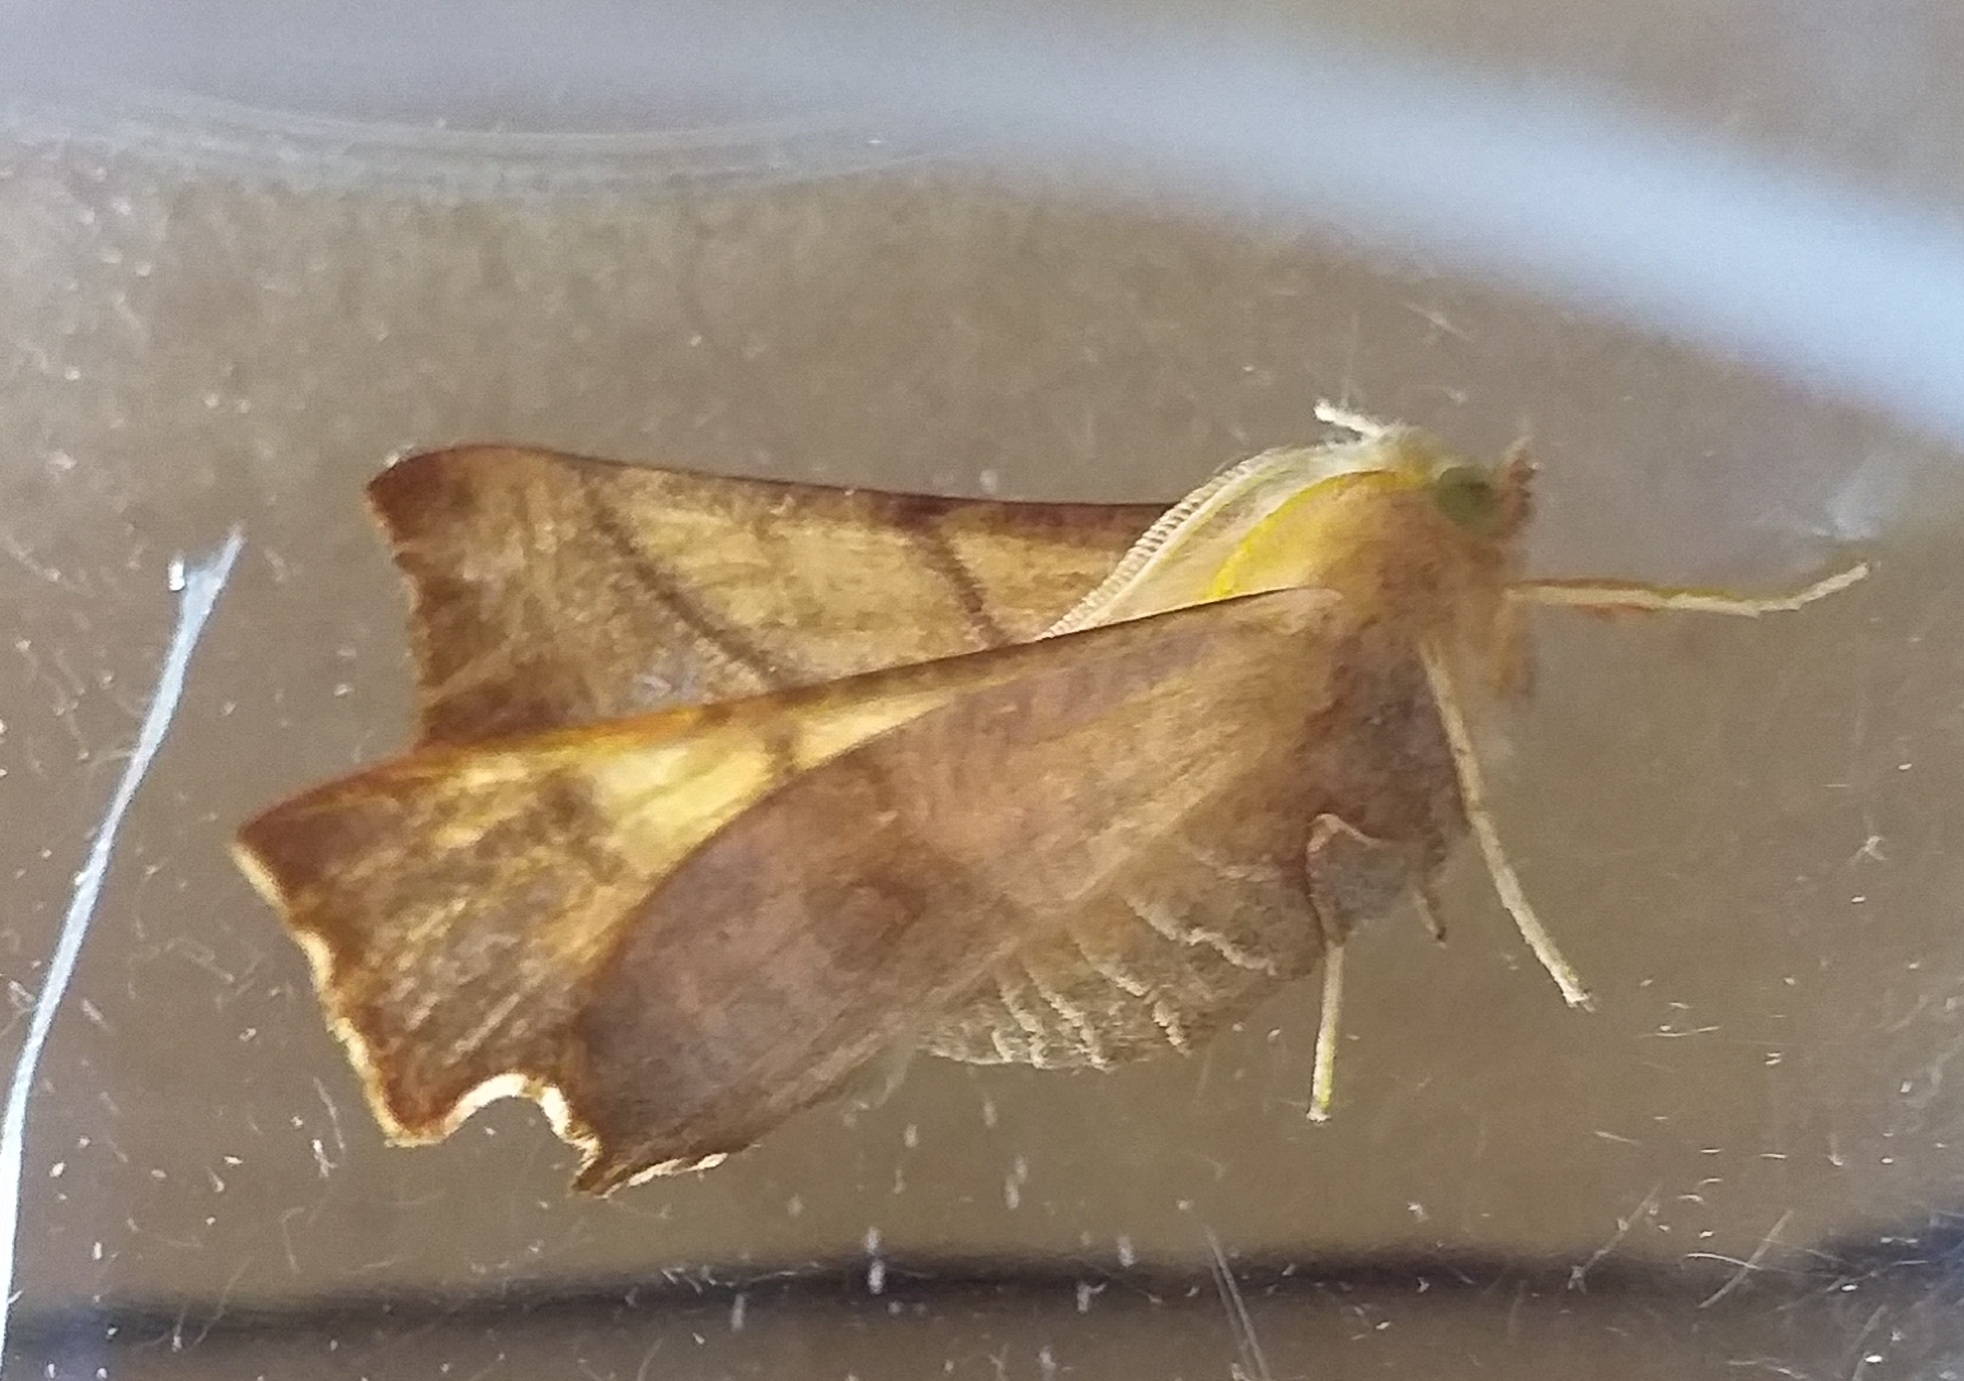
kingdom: Animalia
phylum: Arthropoda
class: Insecta
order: Lepidoptera
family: Geometridae
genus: Ennomos
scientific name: Ennomos fuscantaria
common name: Dusky thorn
